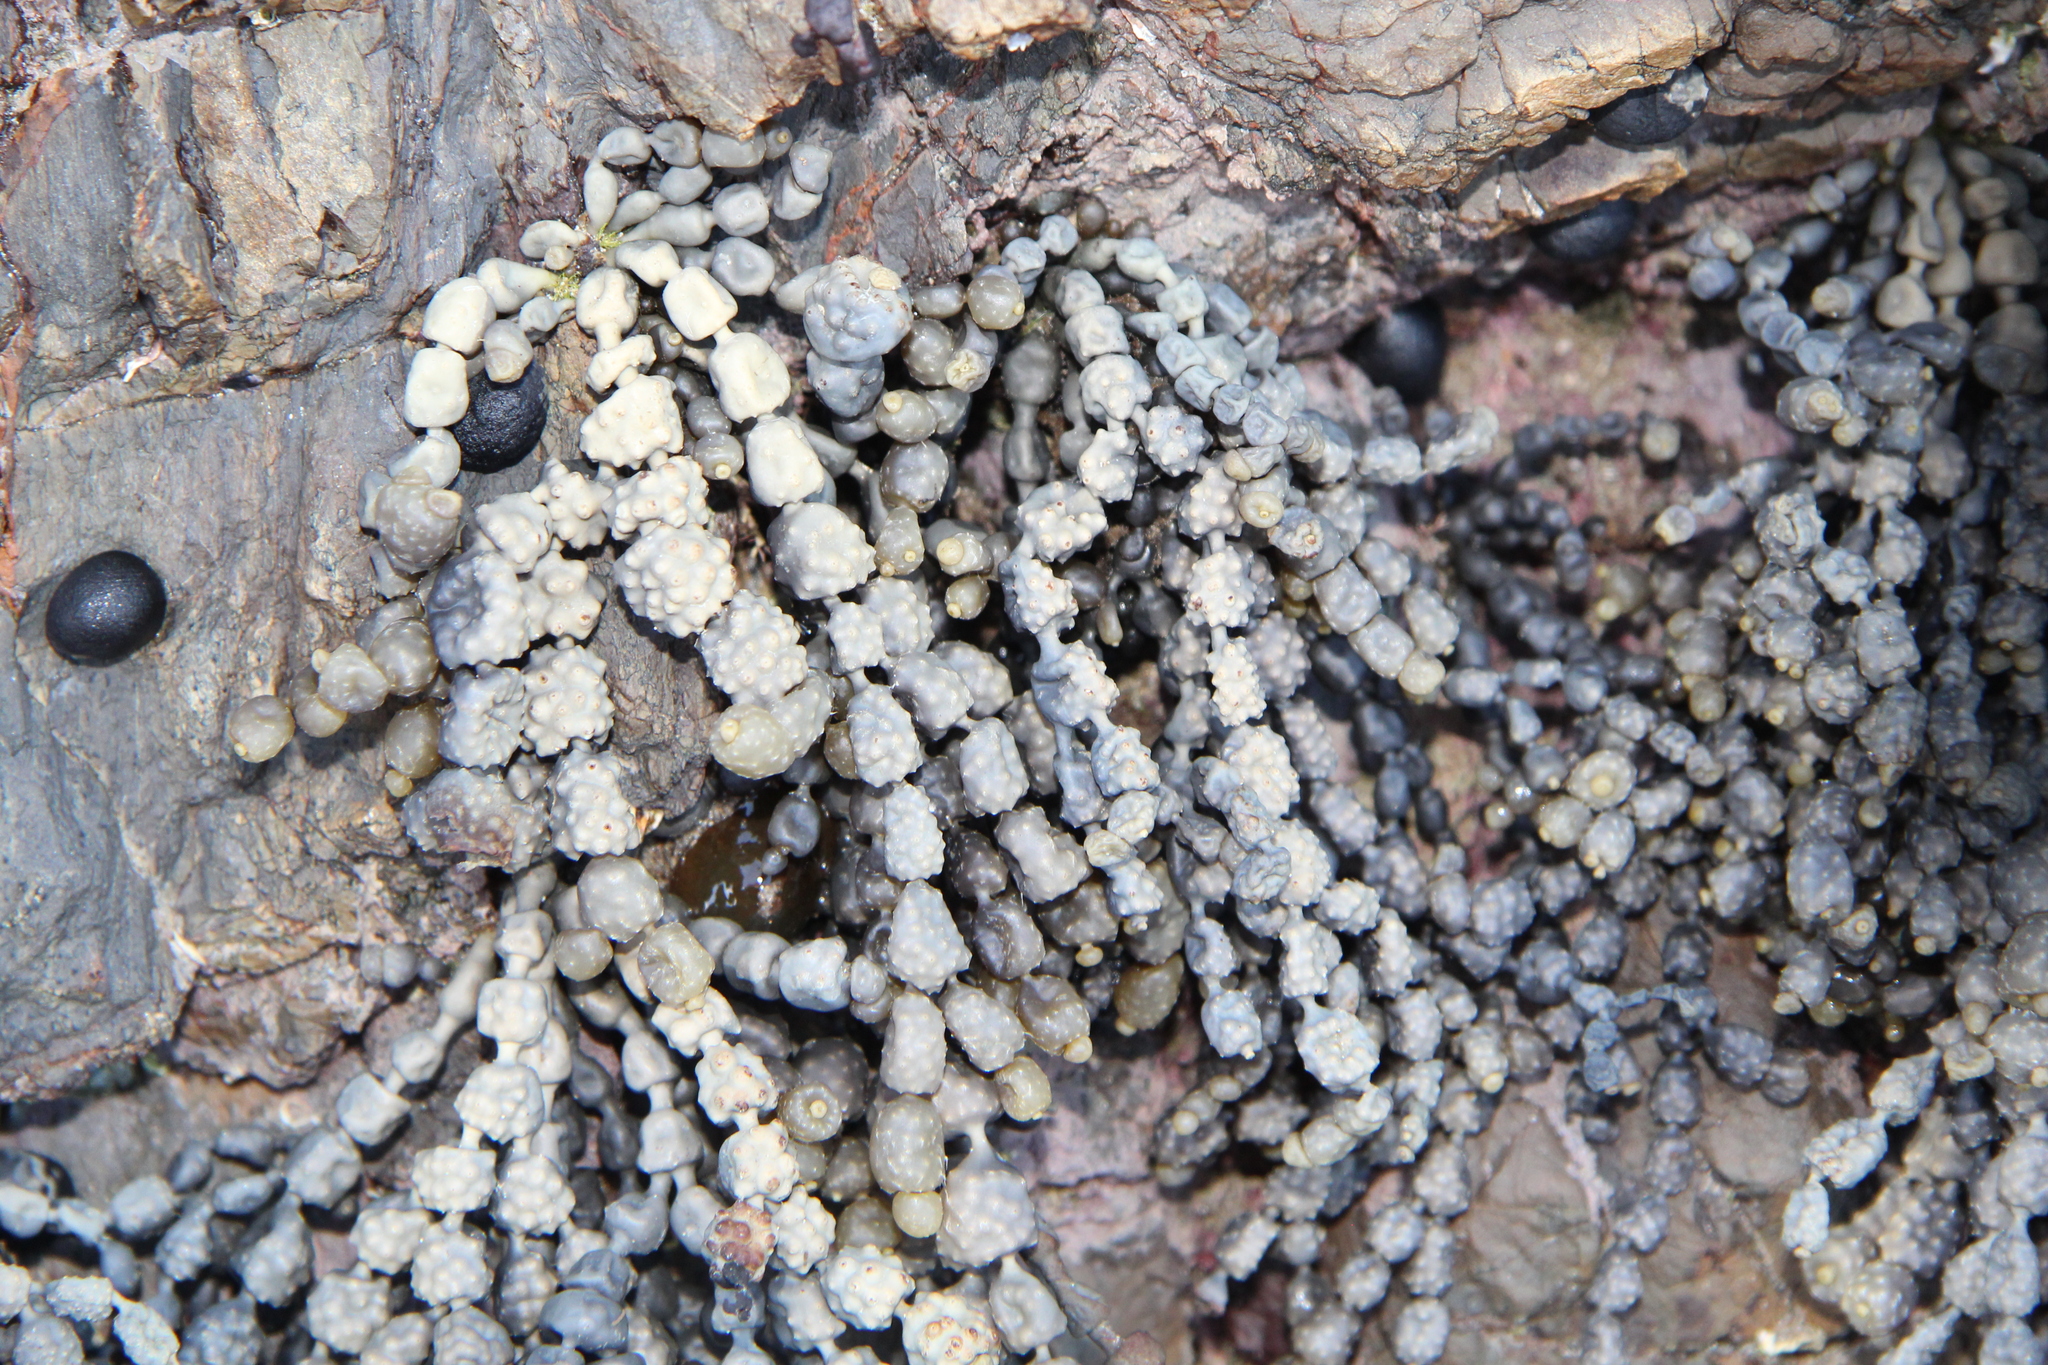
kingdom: Chromista
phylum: Ochrophyta
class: Phaeophyceae
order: Fucales
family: Hormosiraceae
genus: Hormosira
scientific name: Hormosira banksii
